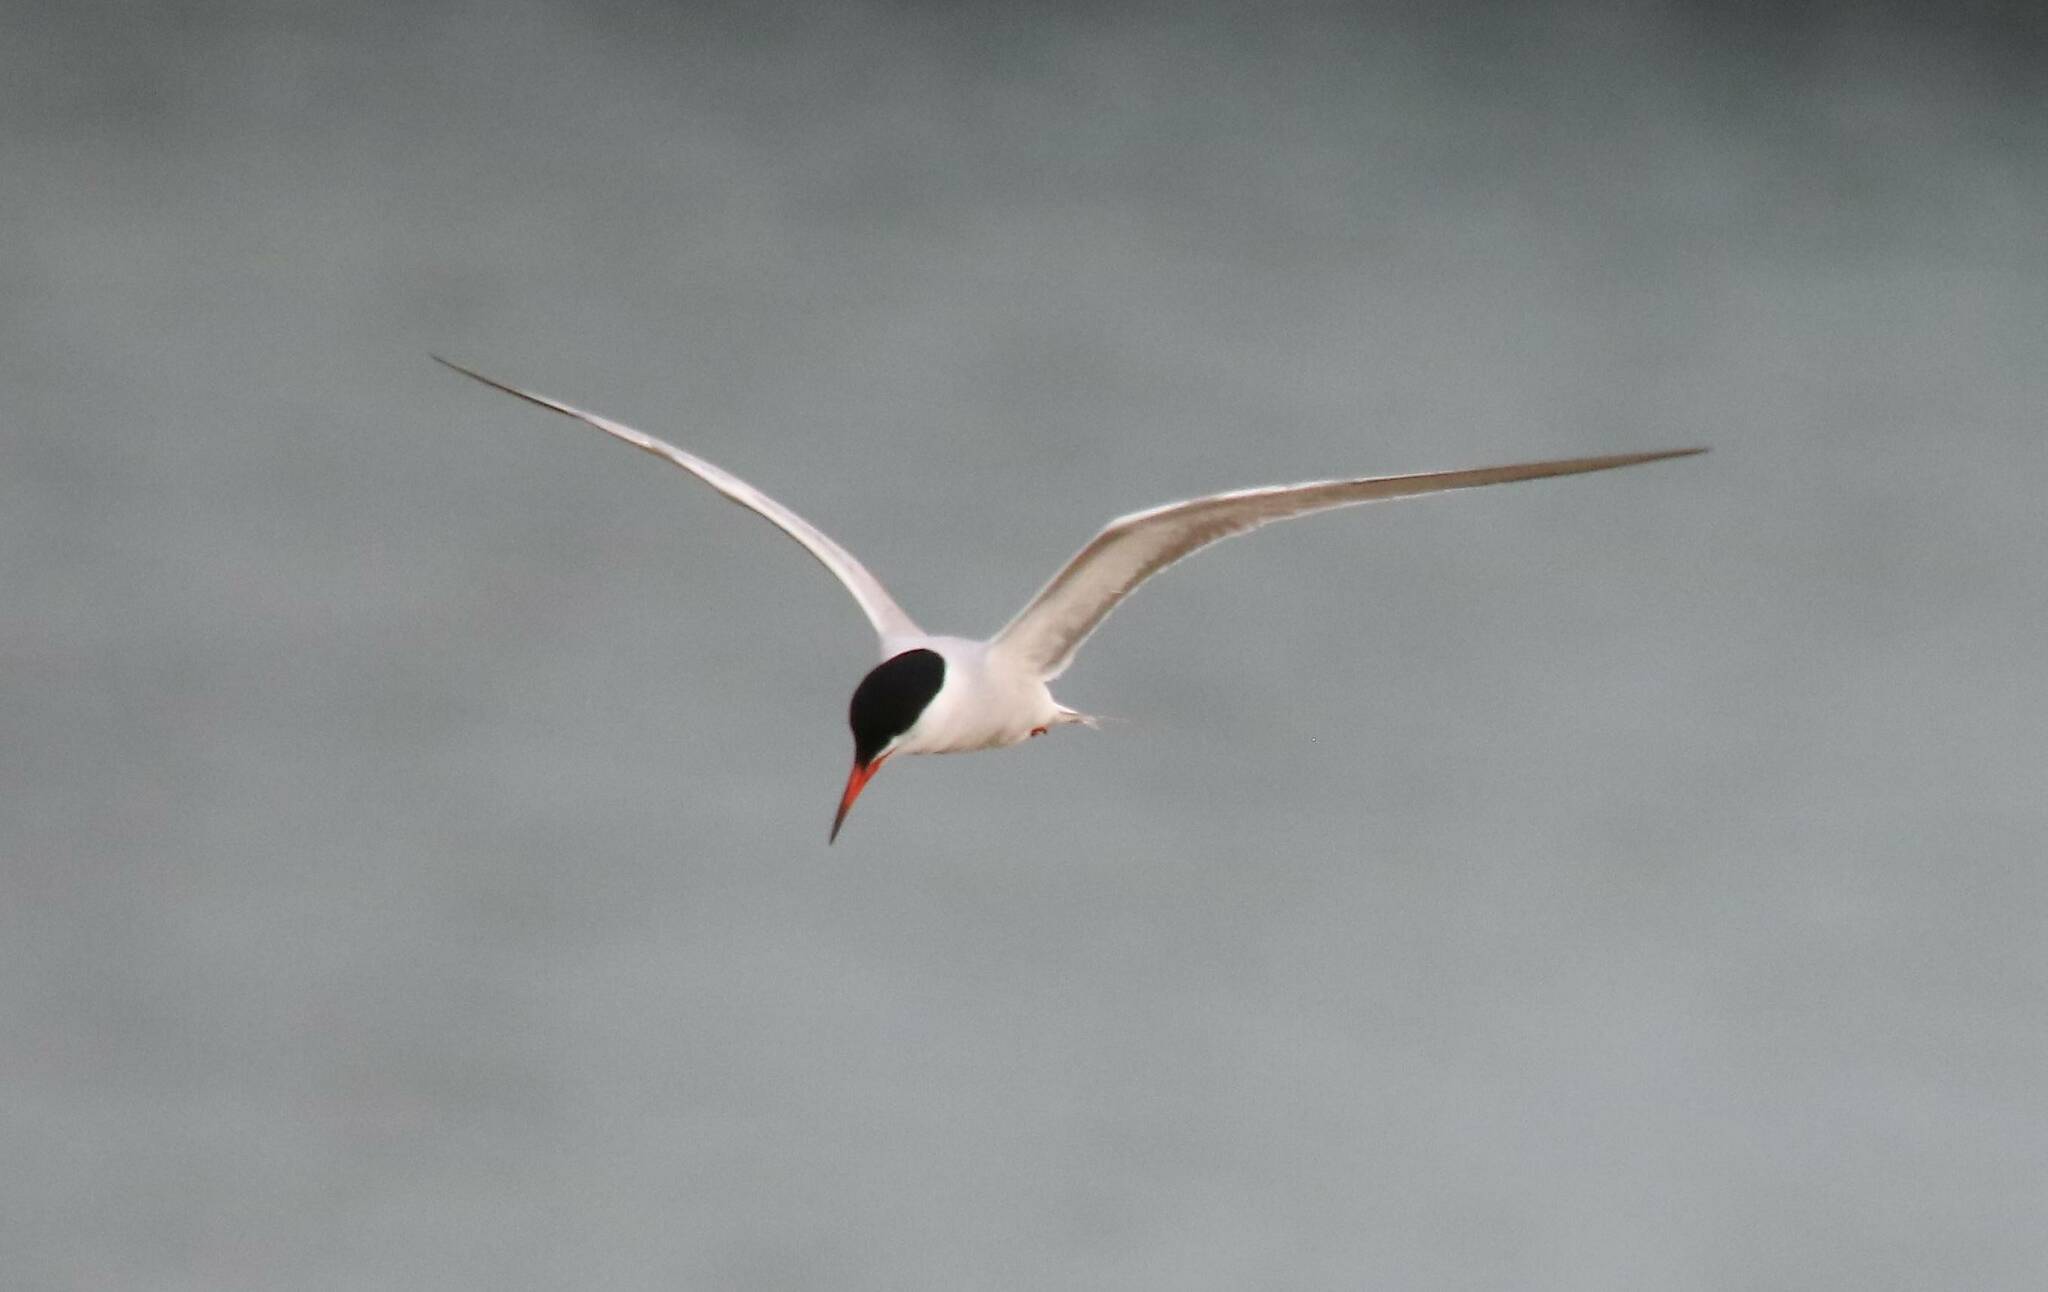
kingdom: Animalia
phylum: Chordata
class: Aves
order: Charadriiformes
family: Laridae
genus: Sterna
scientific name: Sterna hirundo
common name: Common tern
